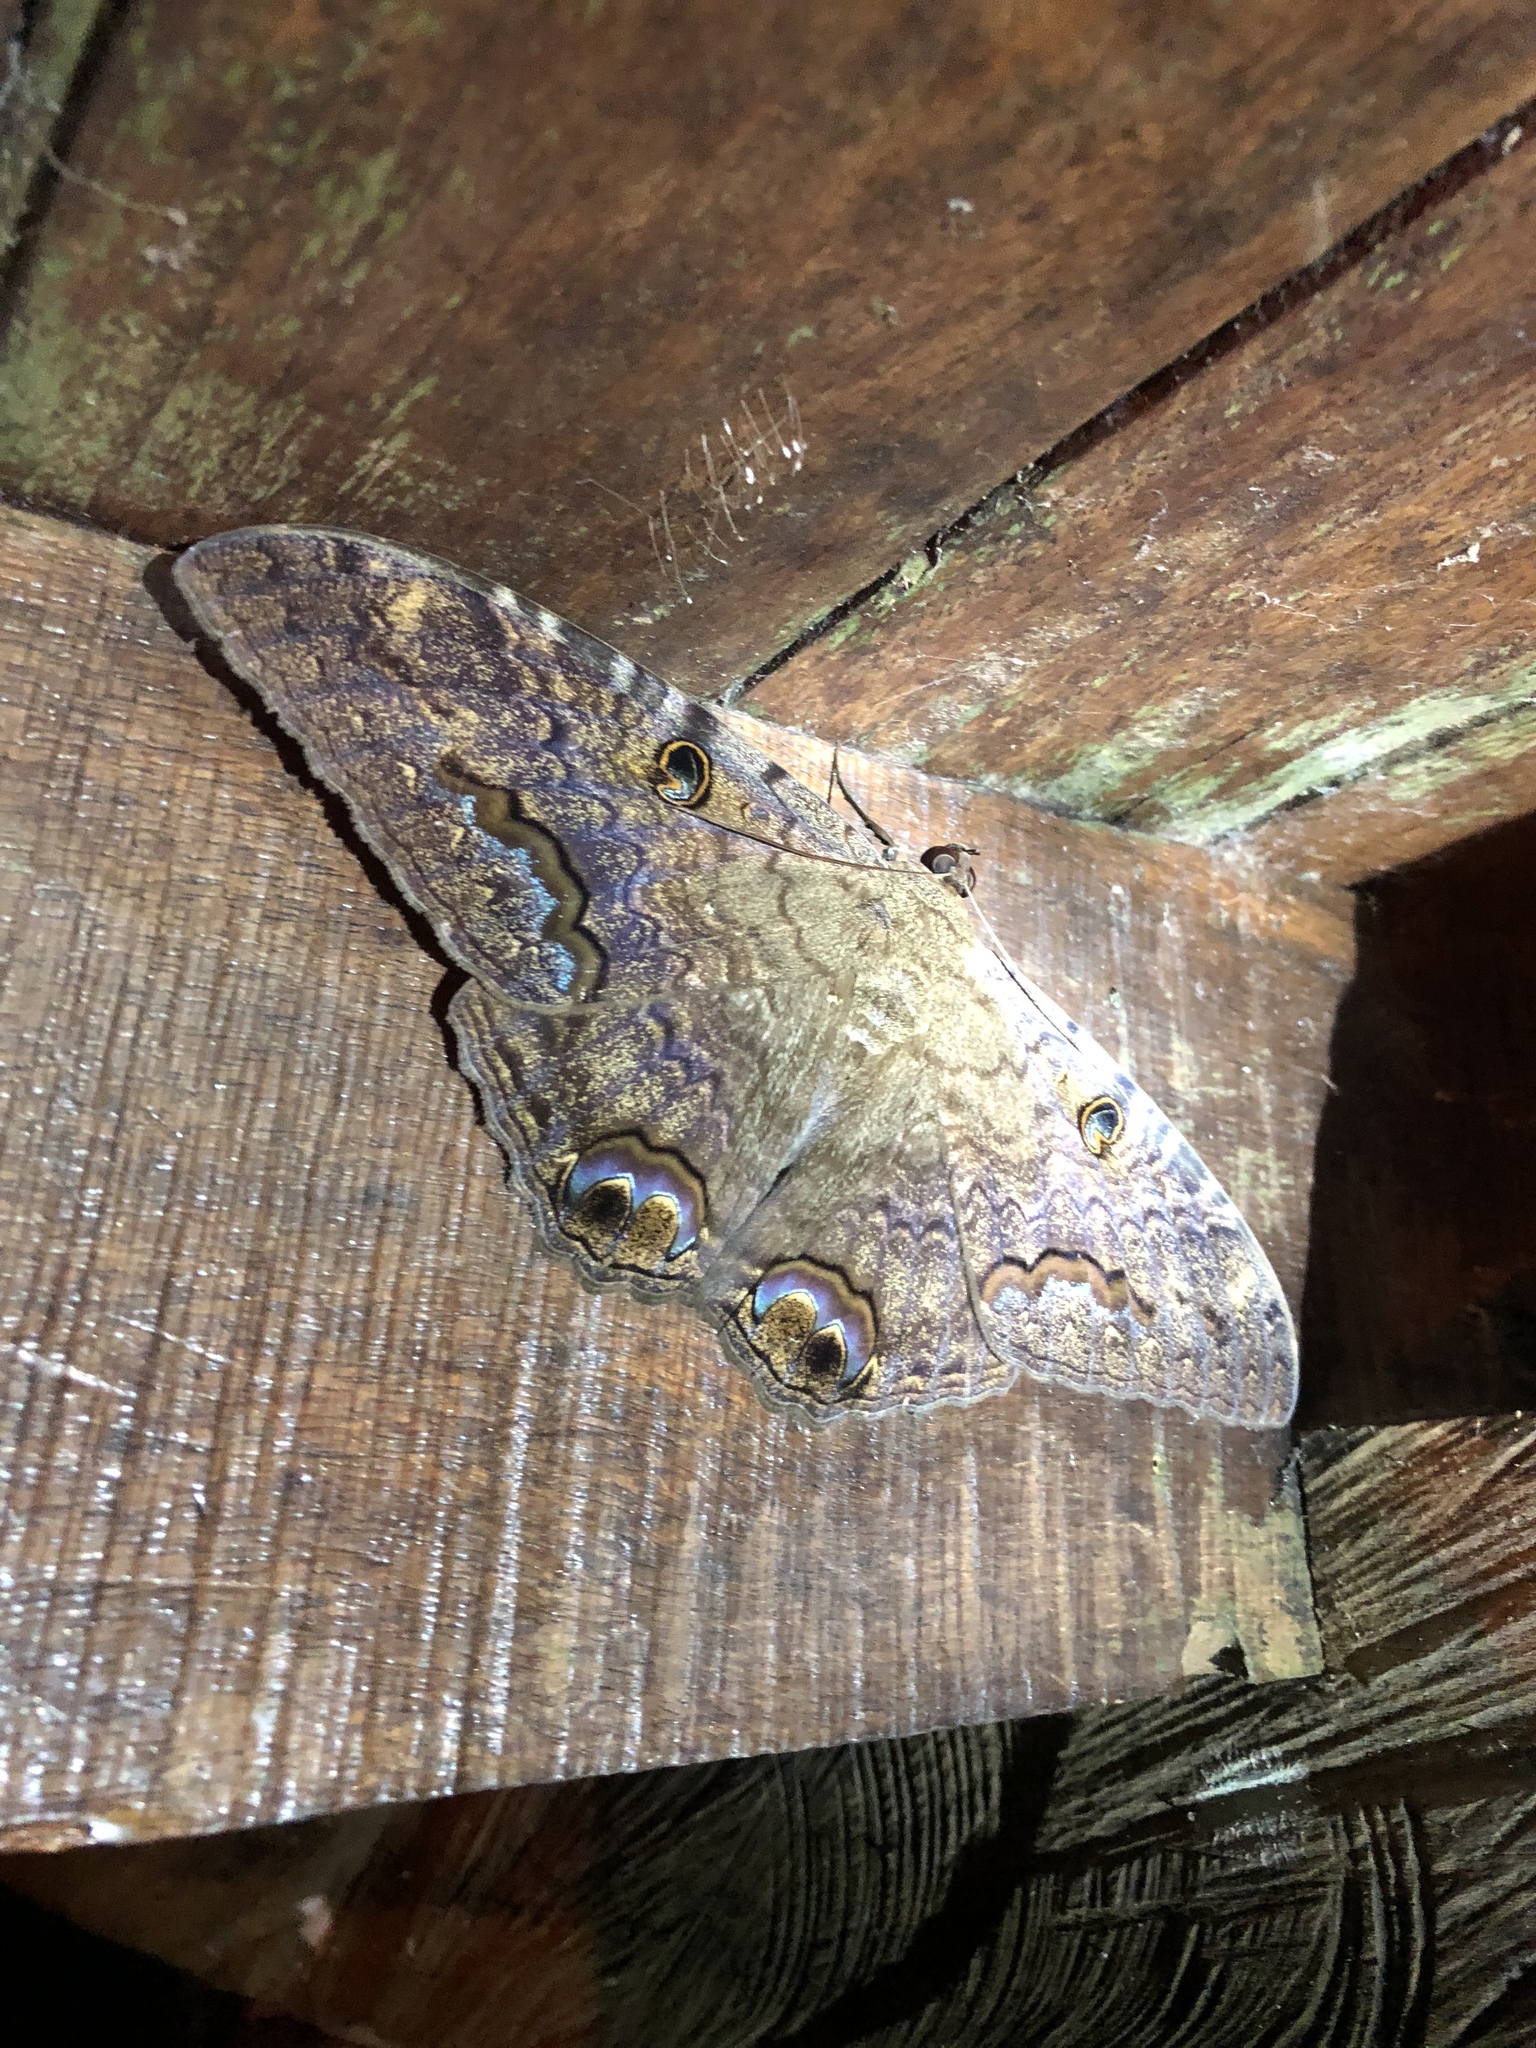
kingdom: Animalia
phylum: Arthropoda
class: Insecta
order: Lepidoptera
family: Erebidae
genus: Ascalapha
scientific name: Ascalapha odorata
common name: Black witch
